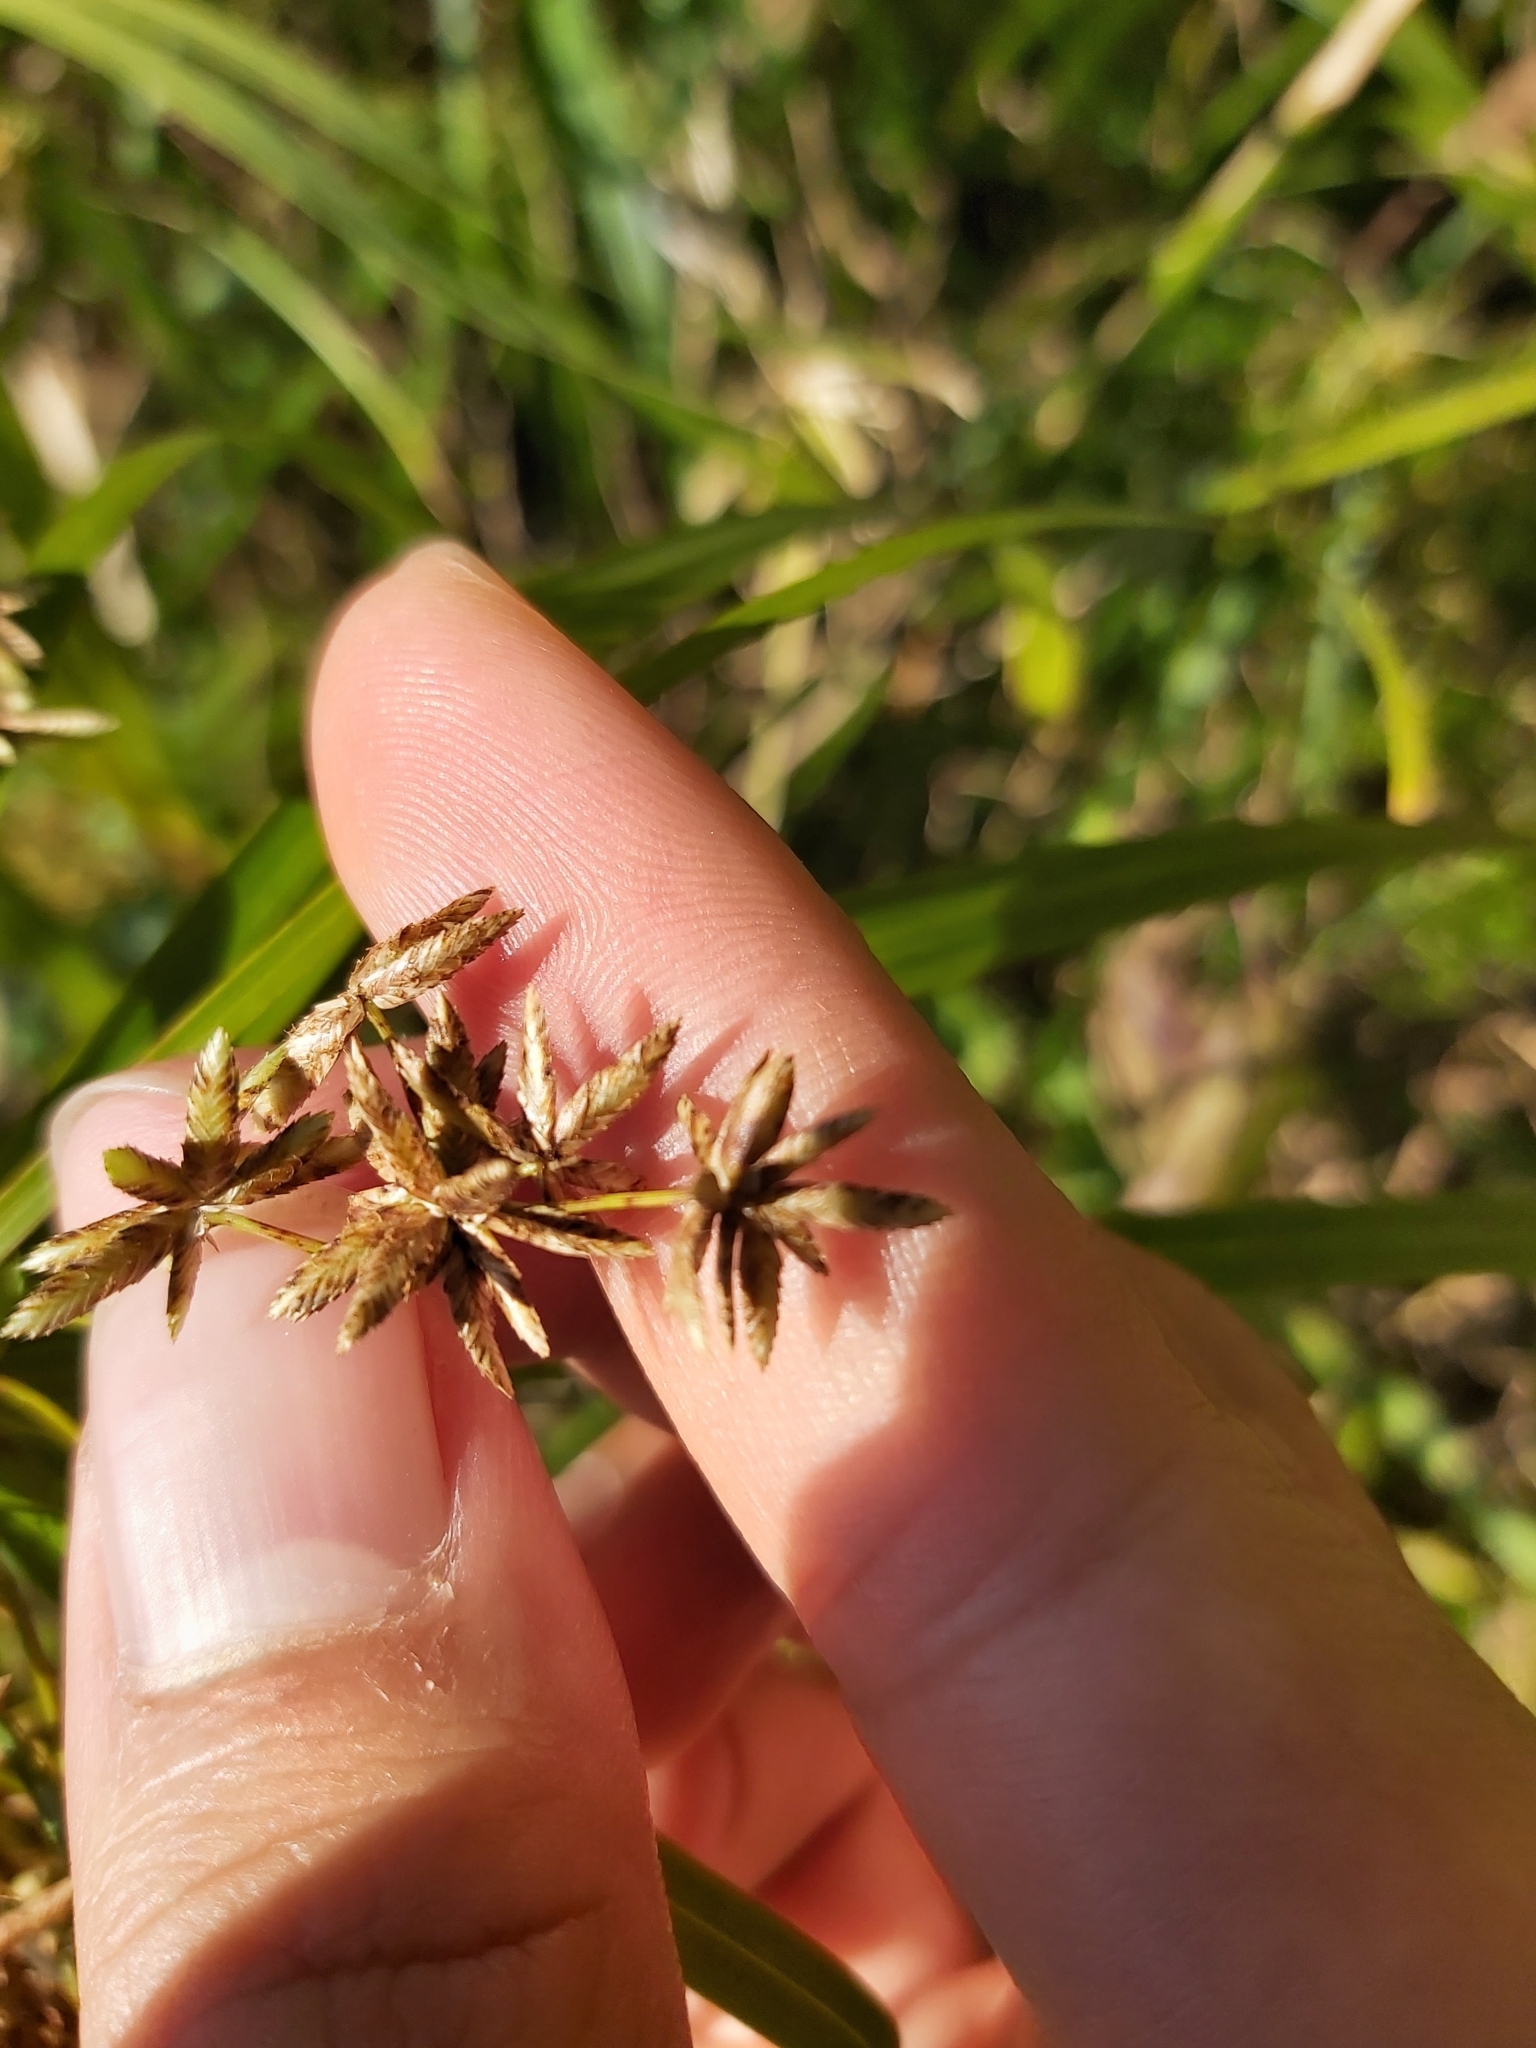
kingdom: Plantae
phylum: Tracheophyta
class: Liliopsida
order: Poales
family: Cyperaceae
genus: Cyperus
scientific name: Cyperus alternifolius
